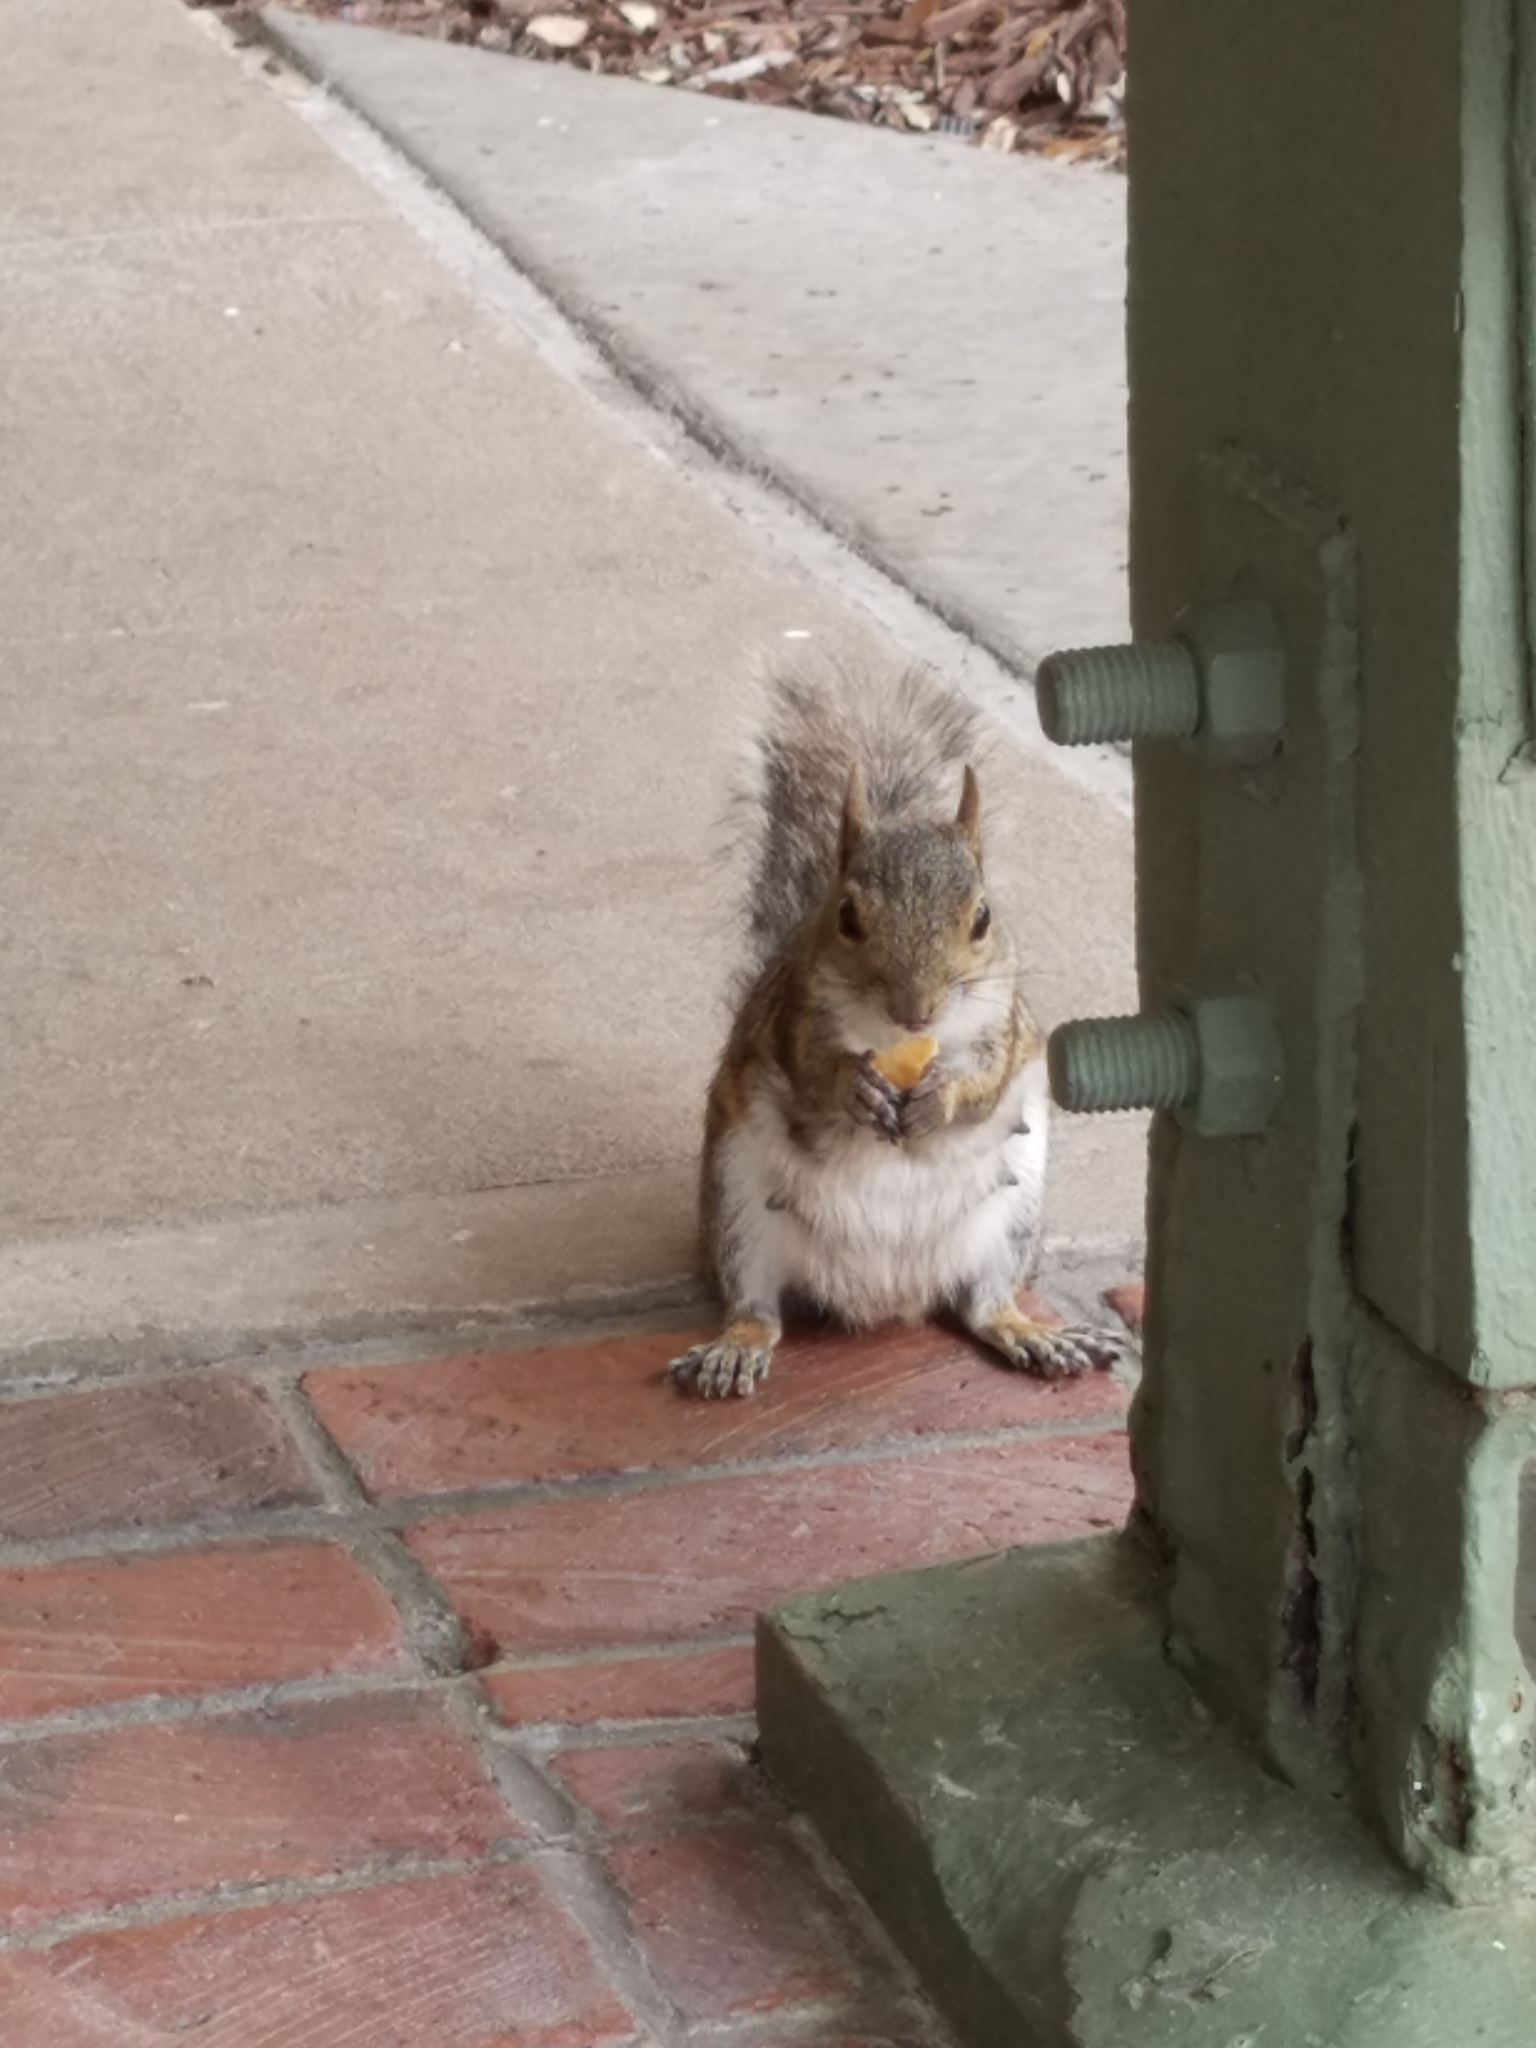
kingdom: Animalia
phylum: Chordata
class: Mammalia
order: Rodentia
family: Sciuridae
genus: Sciurus
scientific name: Sciurus carolinensis
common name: Eastern gray squirrel
